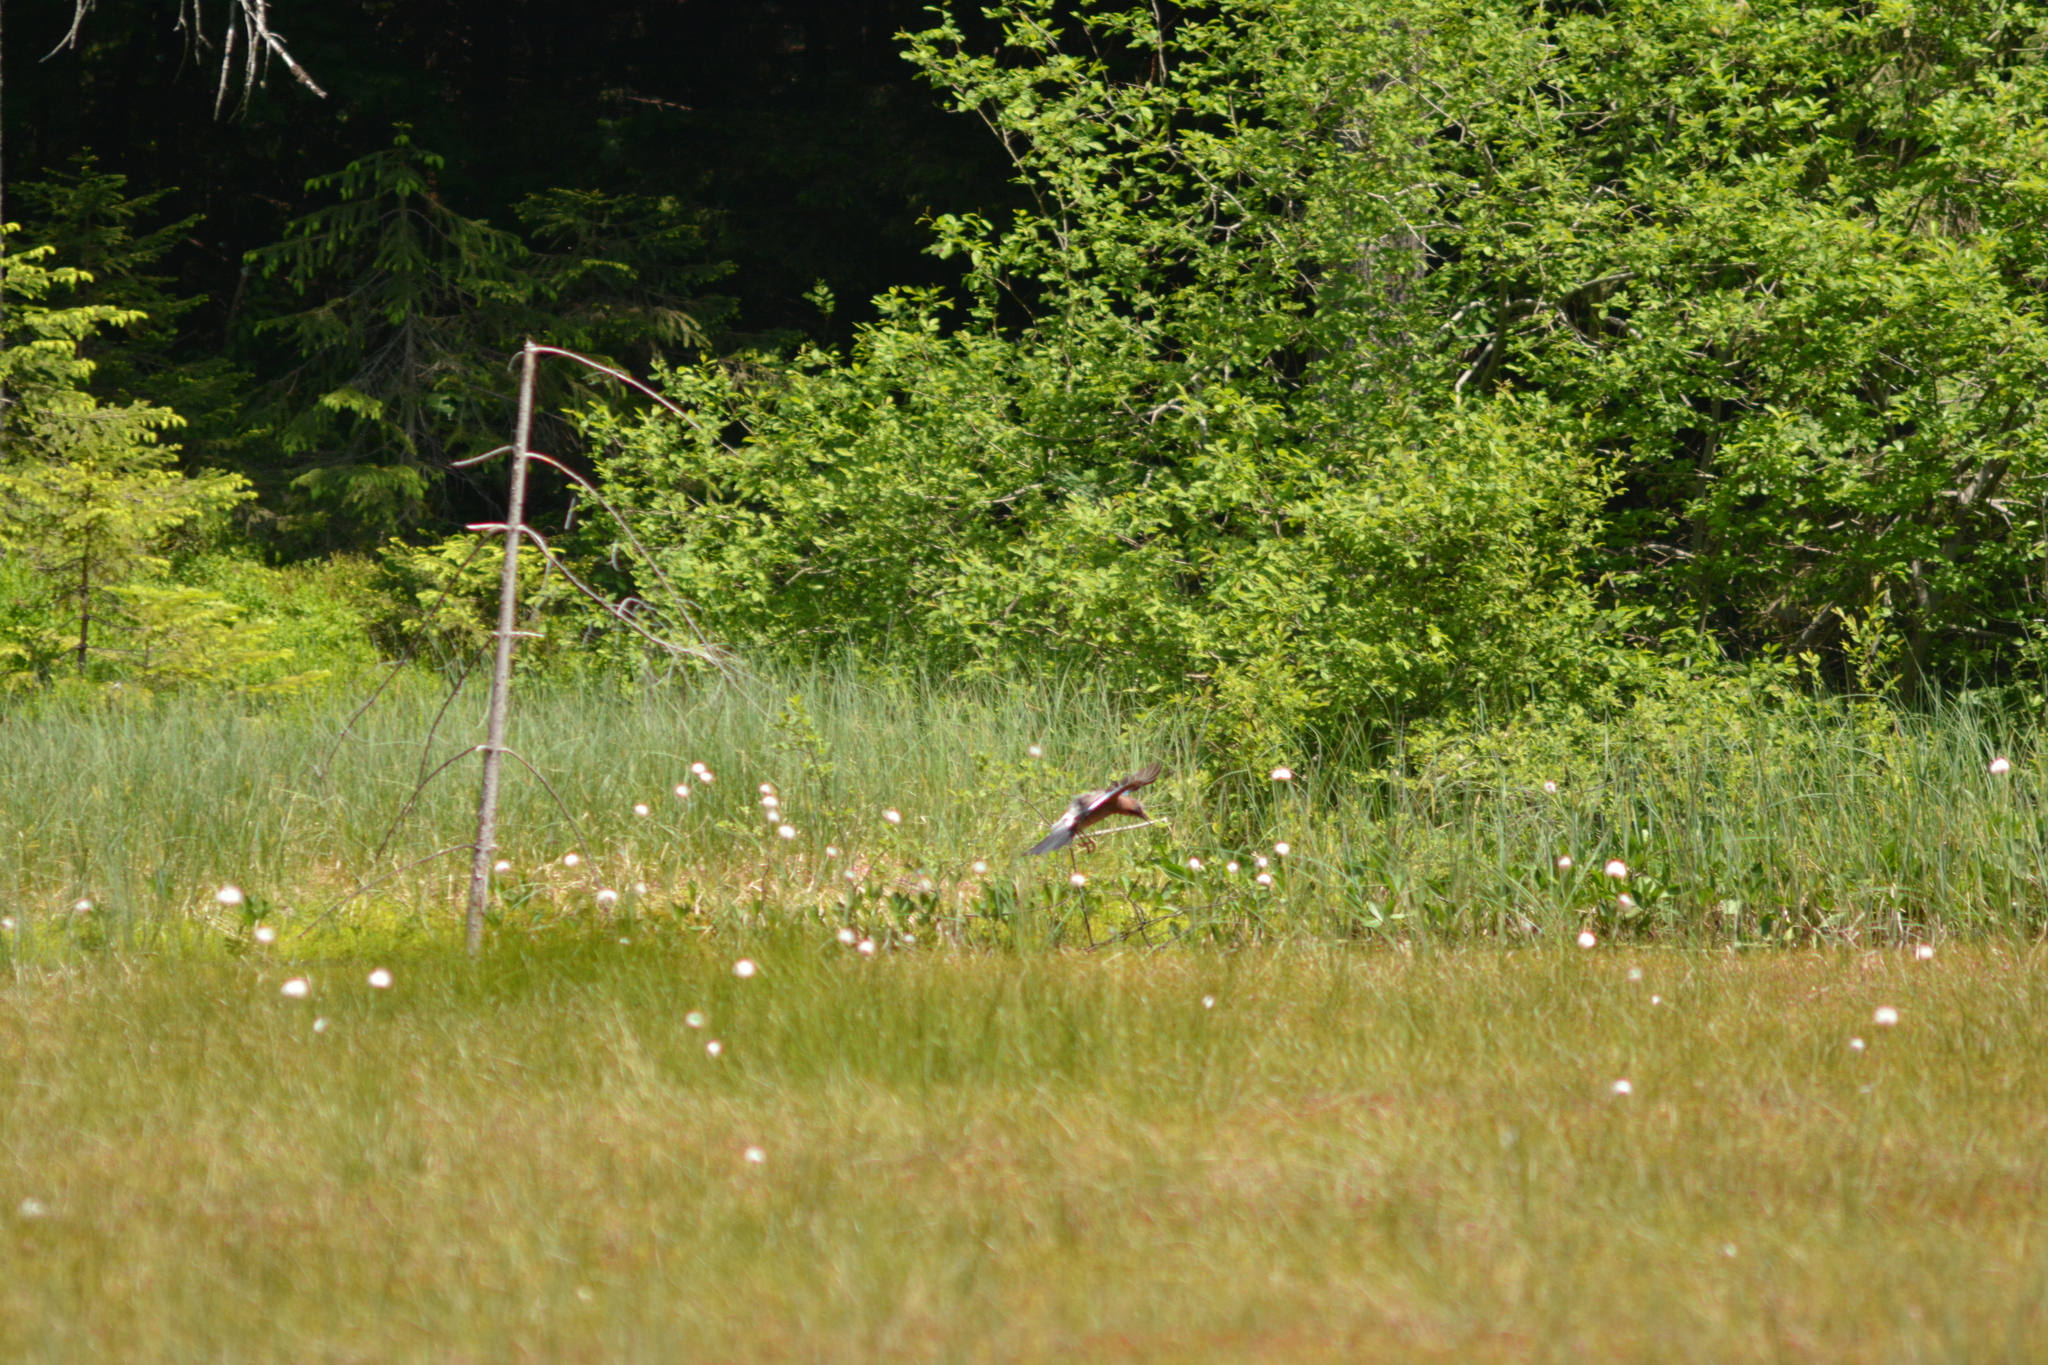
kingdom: Animalia
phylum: Chordata
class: Aves
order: Passeriformes
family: Corvidae
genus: Garrulus
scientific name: Garrulus glandarius
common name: Eurasian jay
